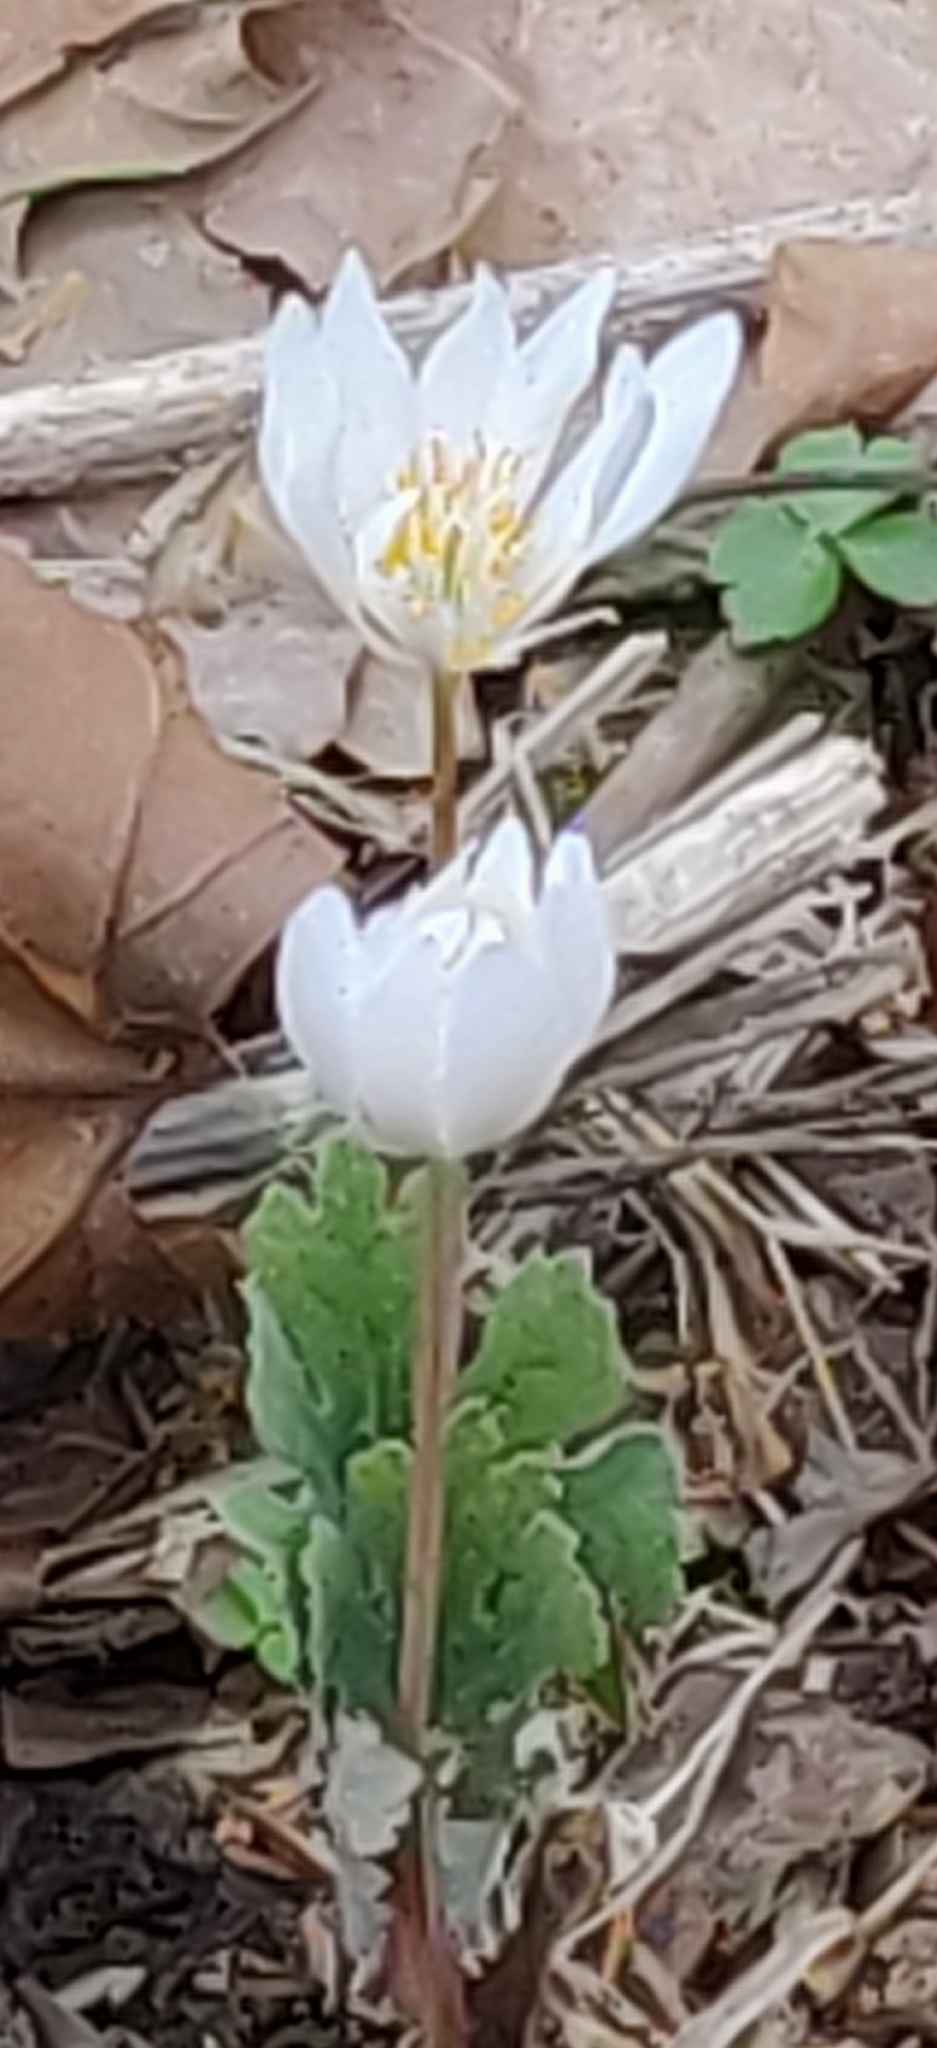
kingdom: Plantae
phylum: Tracheophyta
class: Magnoliopsida
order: Ranunculales
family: Papaveraceae
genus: Sanguinaria
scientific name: Sanguinaria canadensis
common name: Bloodroot
